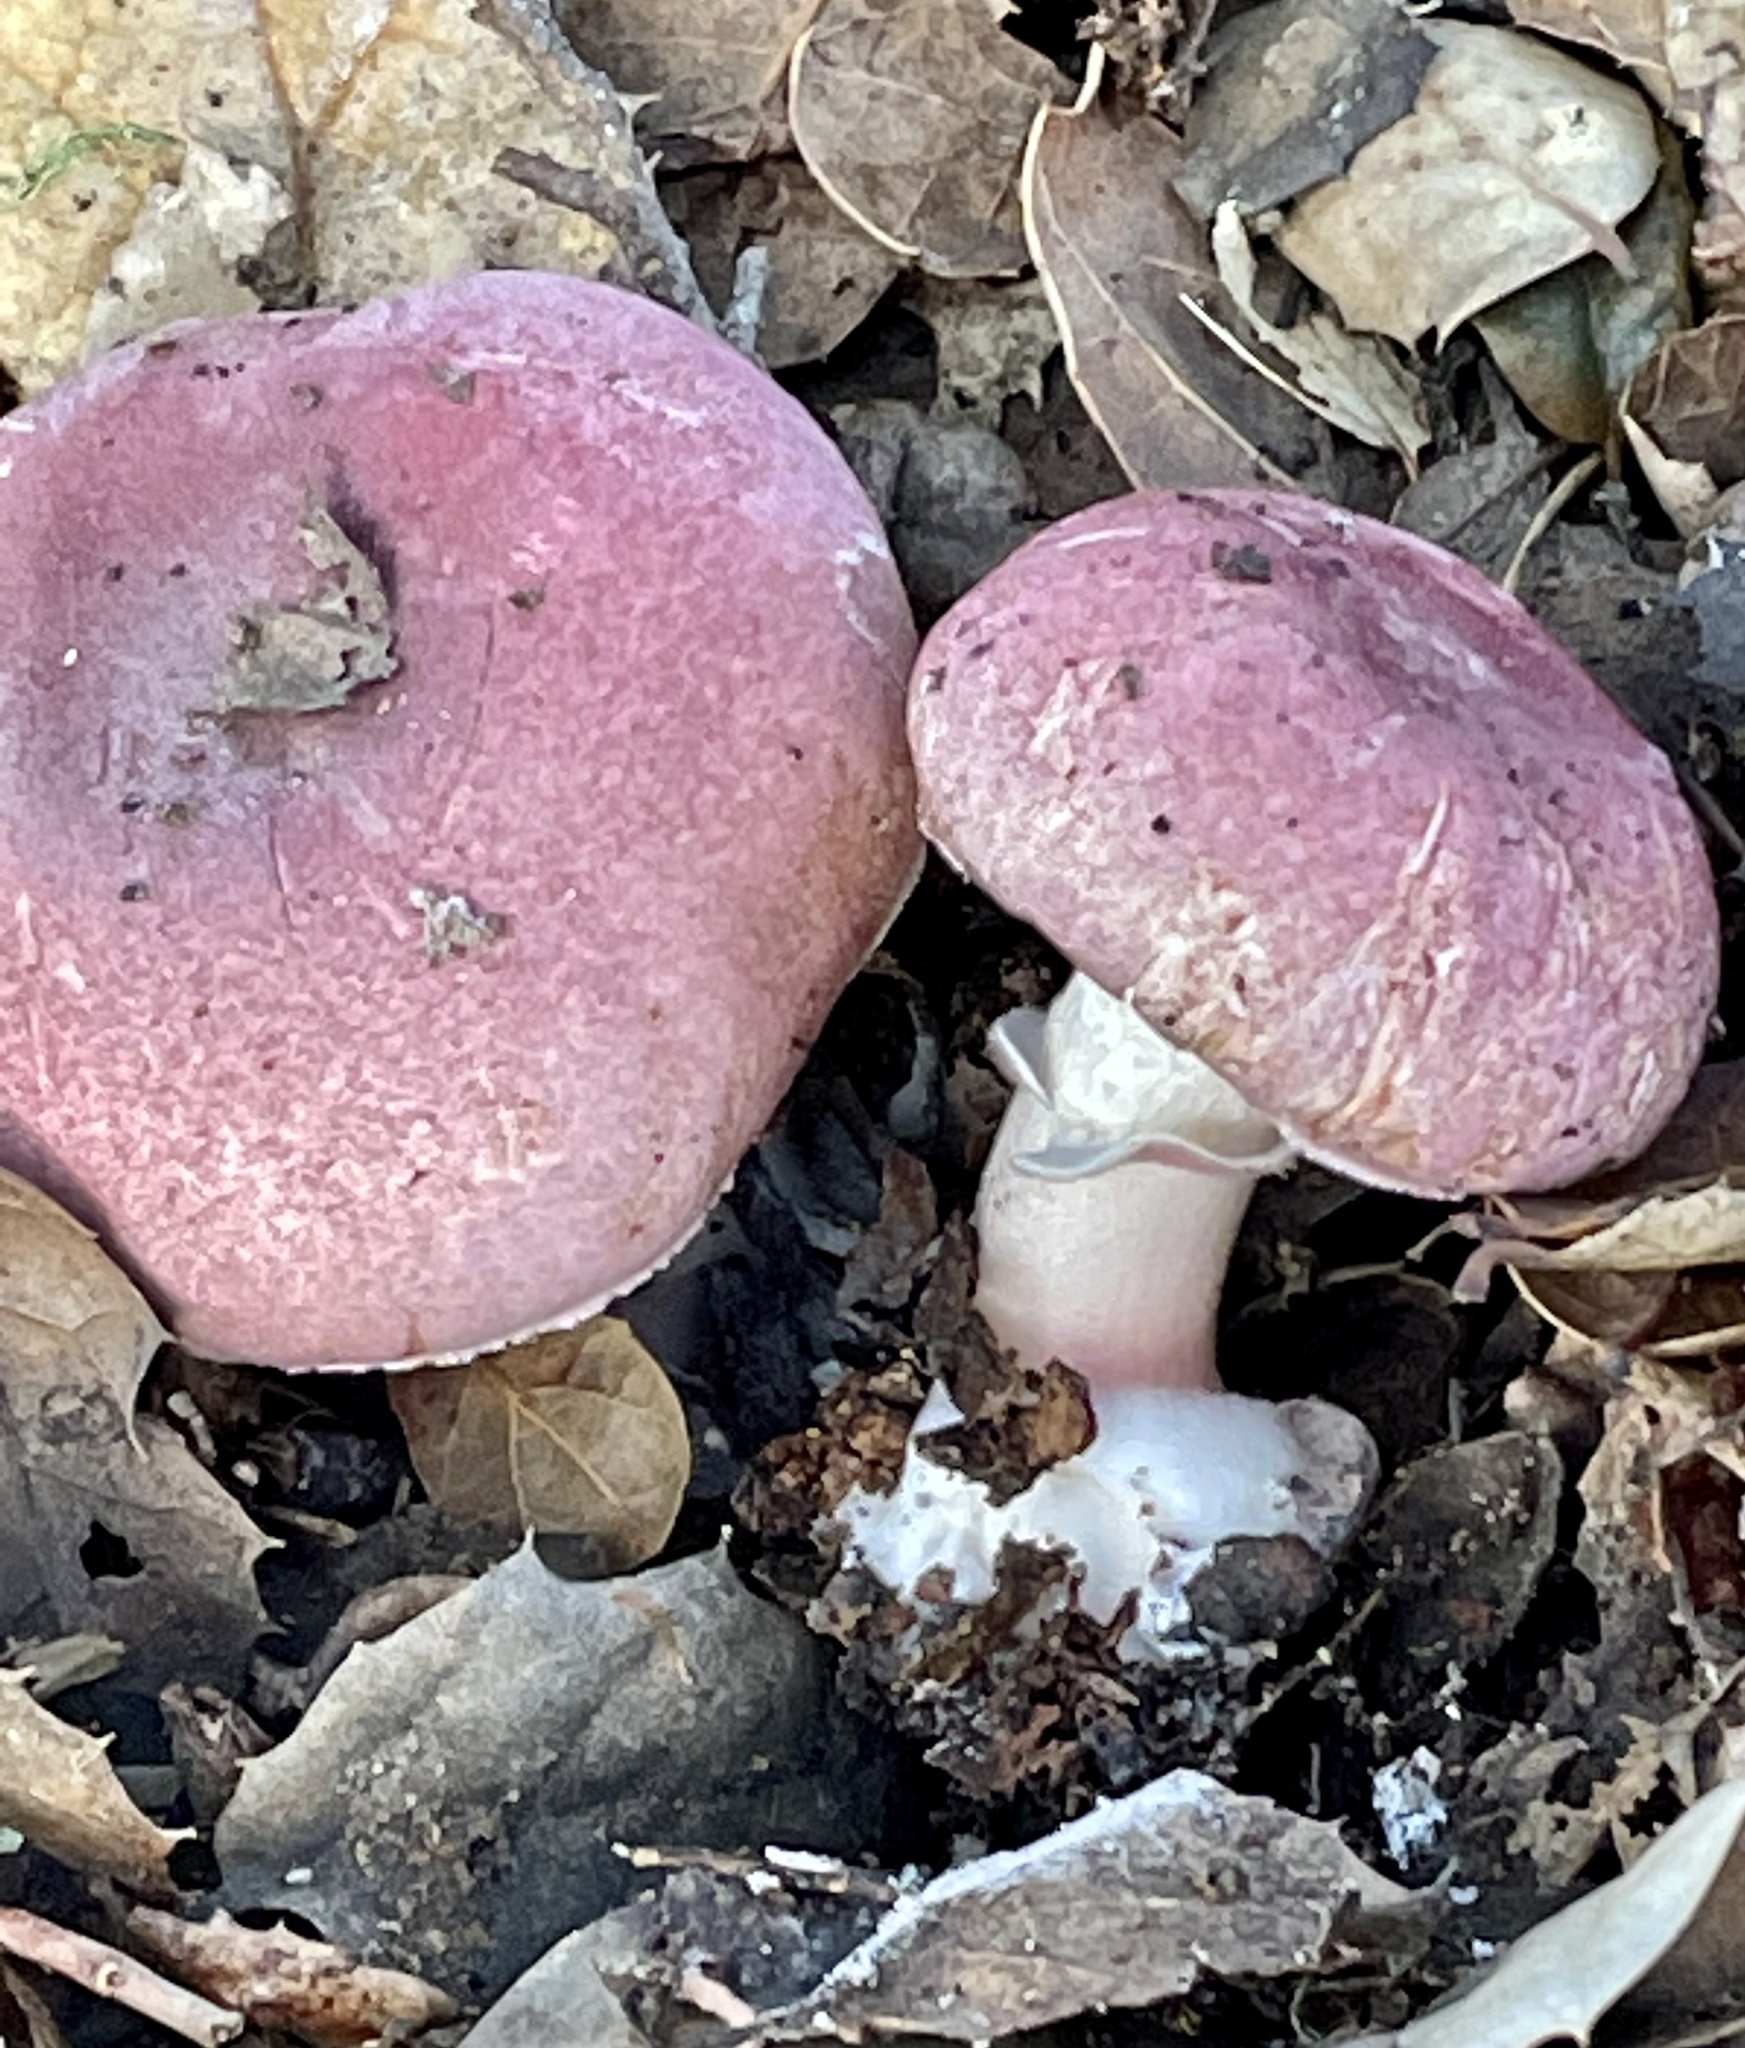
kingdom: Fungi
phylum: Basidiomycota
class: Agaricomycetes
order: Agaricales
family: Agaricaceae
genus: Lepiota
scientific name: Lepiota decorata
